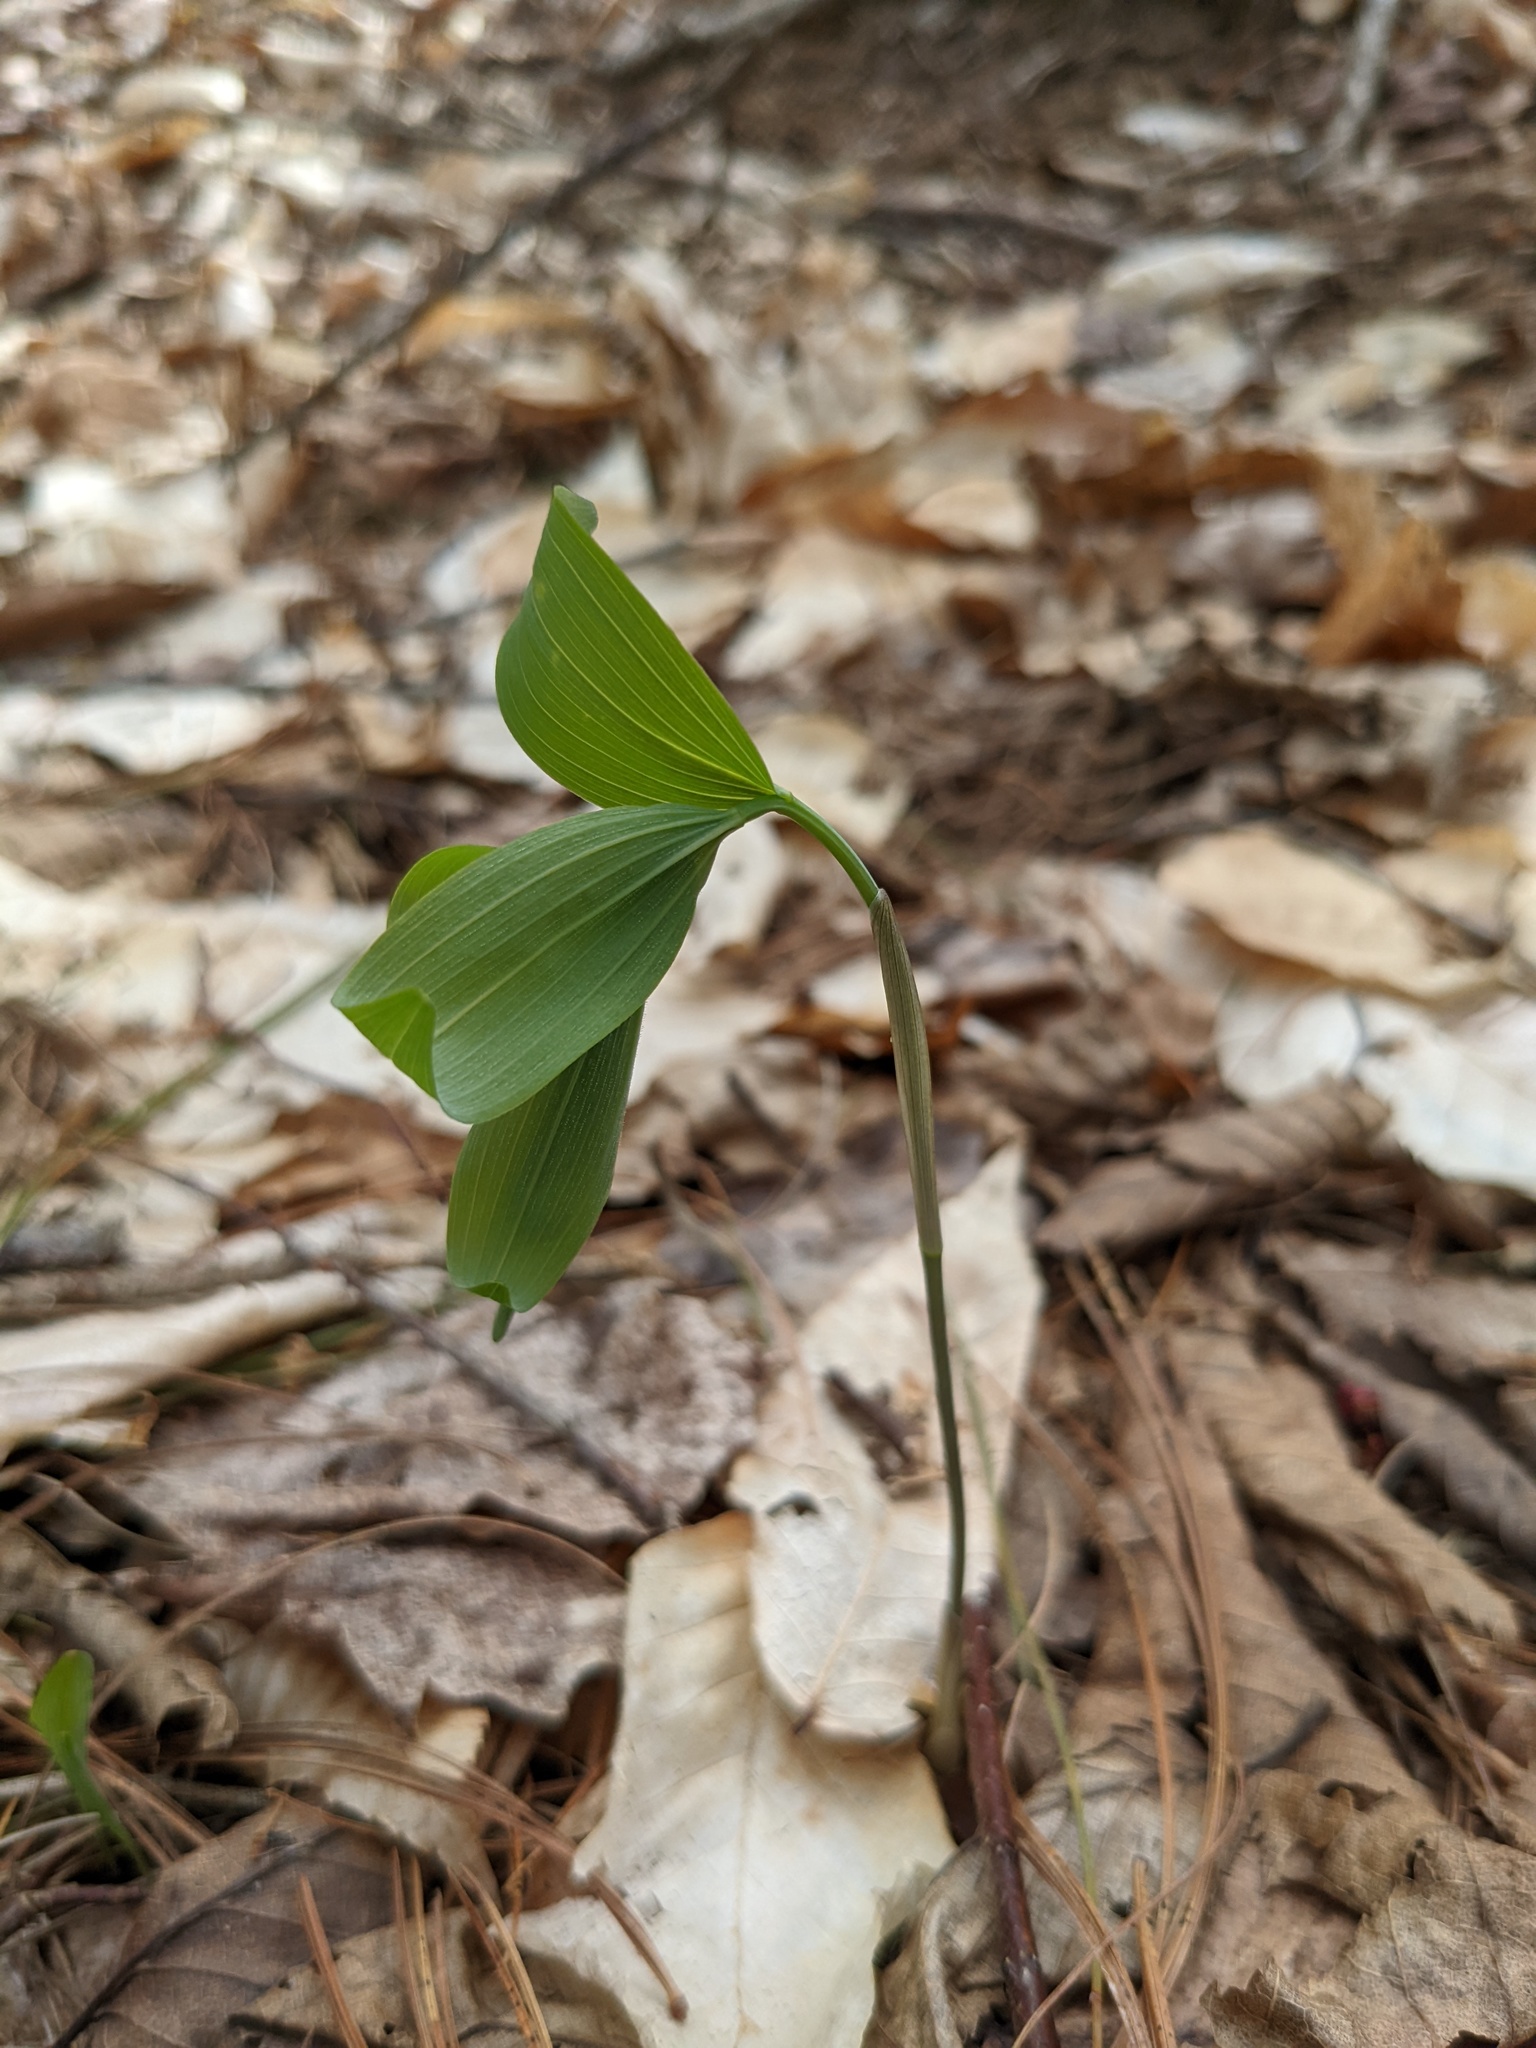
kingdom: Plantae
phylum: Tracheophyta
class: Liliopsida
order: Asparagales
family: Asparagaceae
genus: Polygonatum
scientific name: Polygonatum pubescens
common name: Downy solomon's seal
